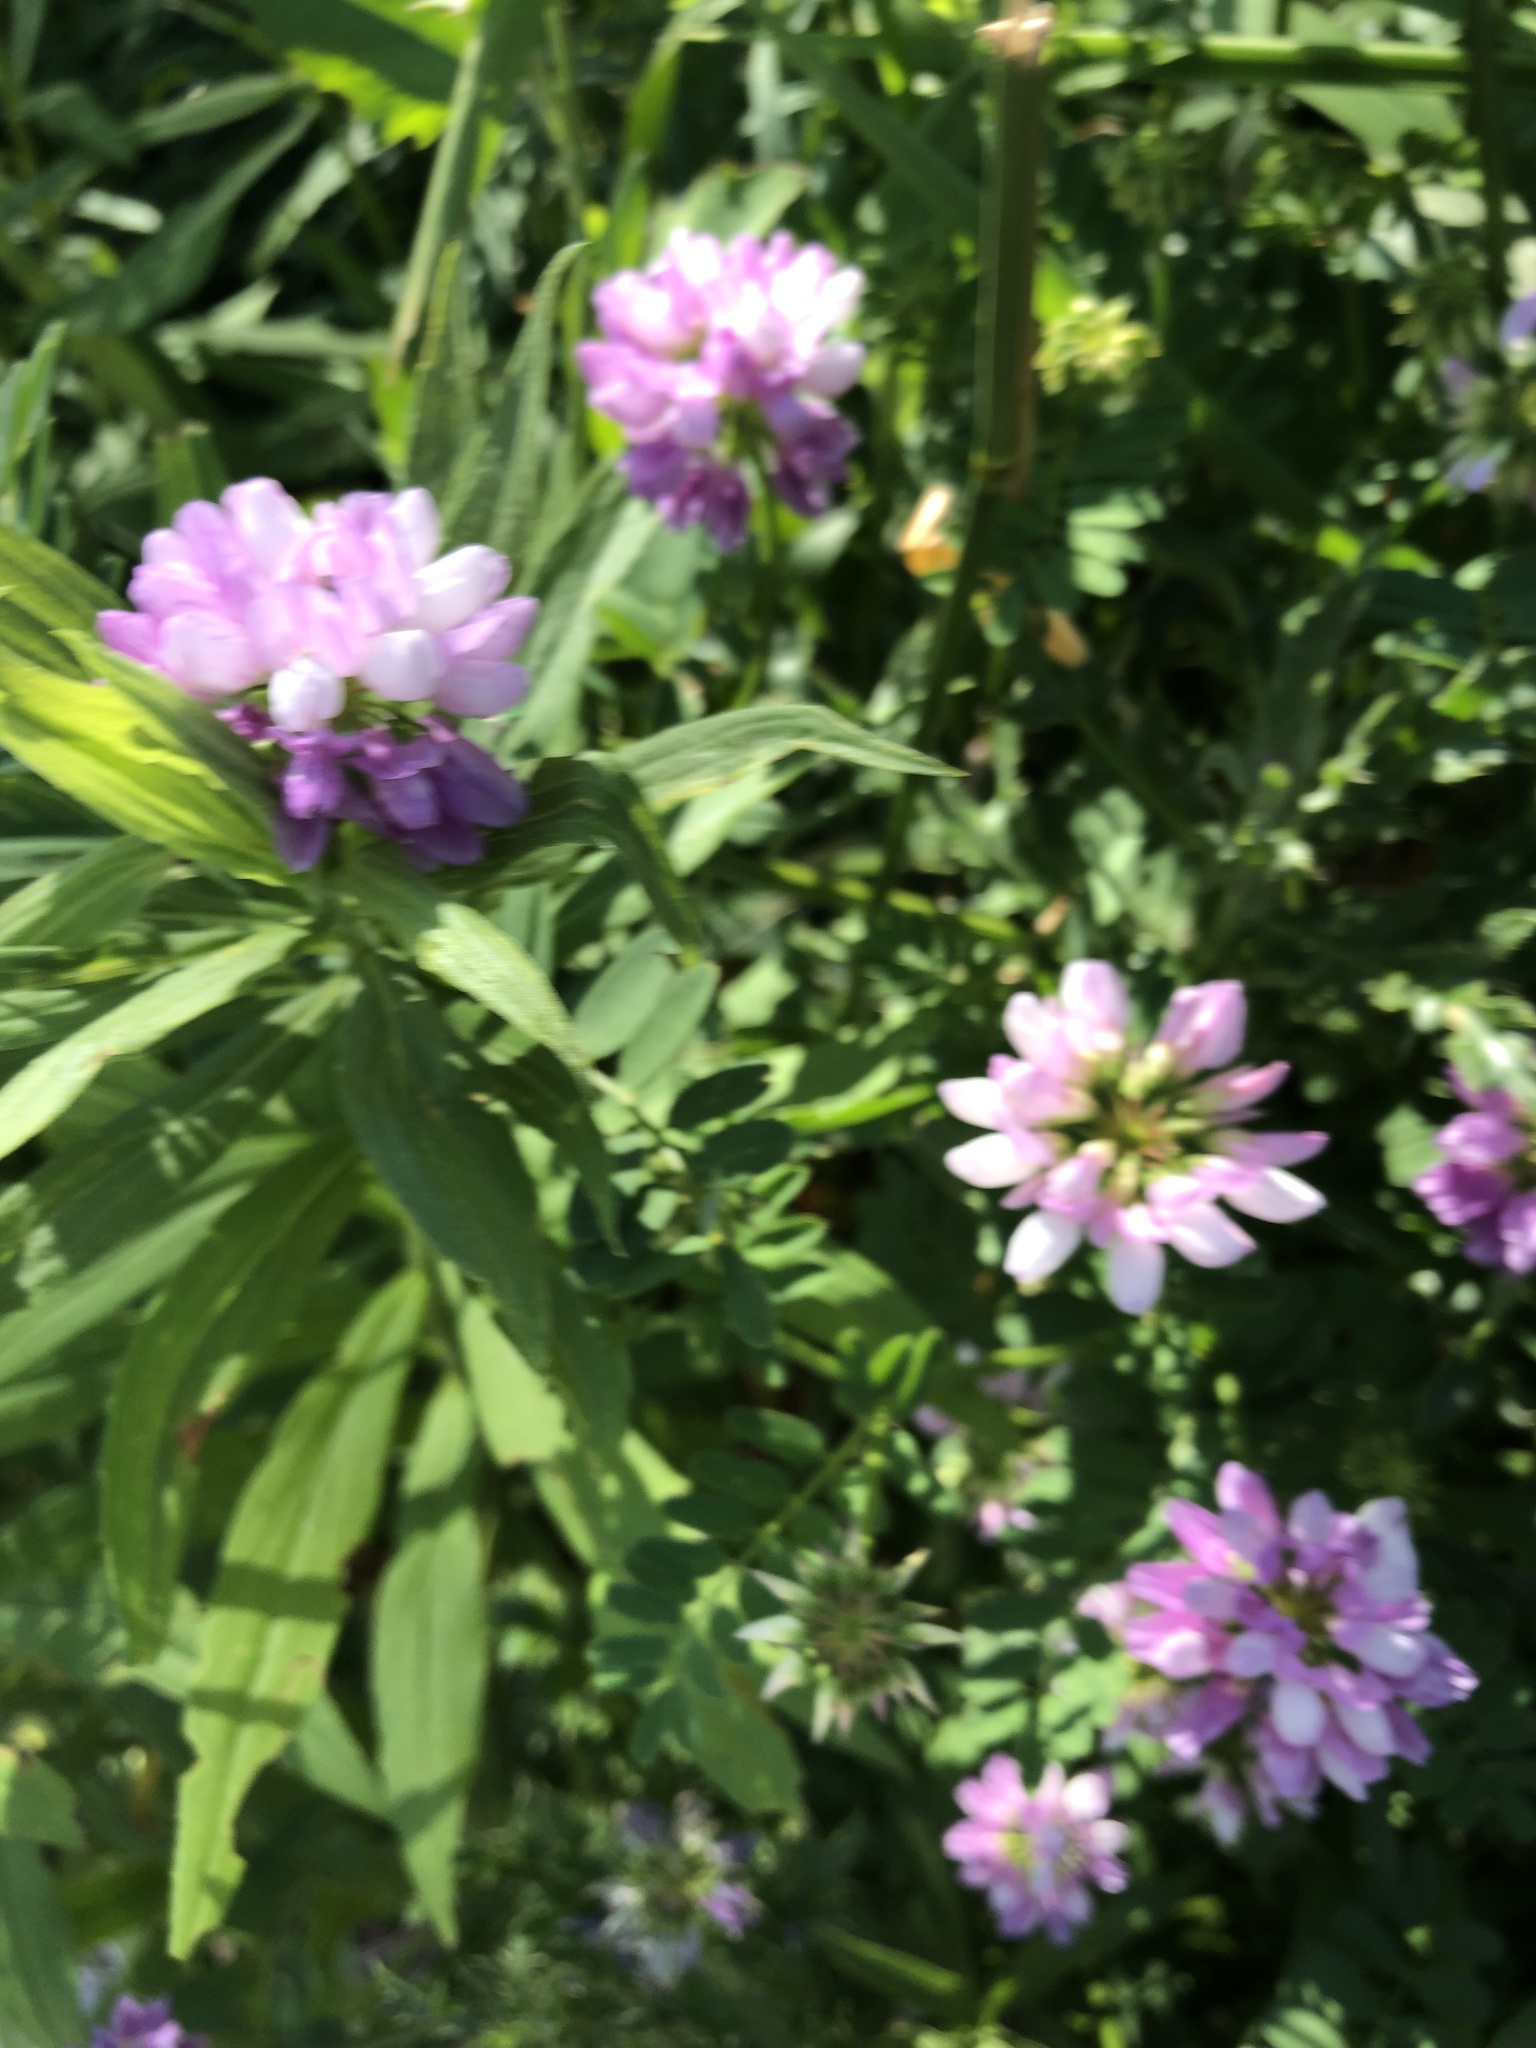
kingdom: Plantae
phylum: Tracheophyta
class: Magnoliopsida
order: Fabales
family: Fabaceae
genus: Coronilla
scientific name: Coronilla varia
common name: Crownvetch
